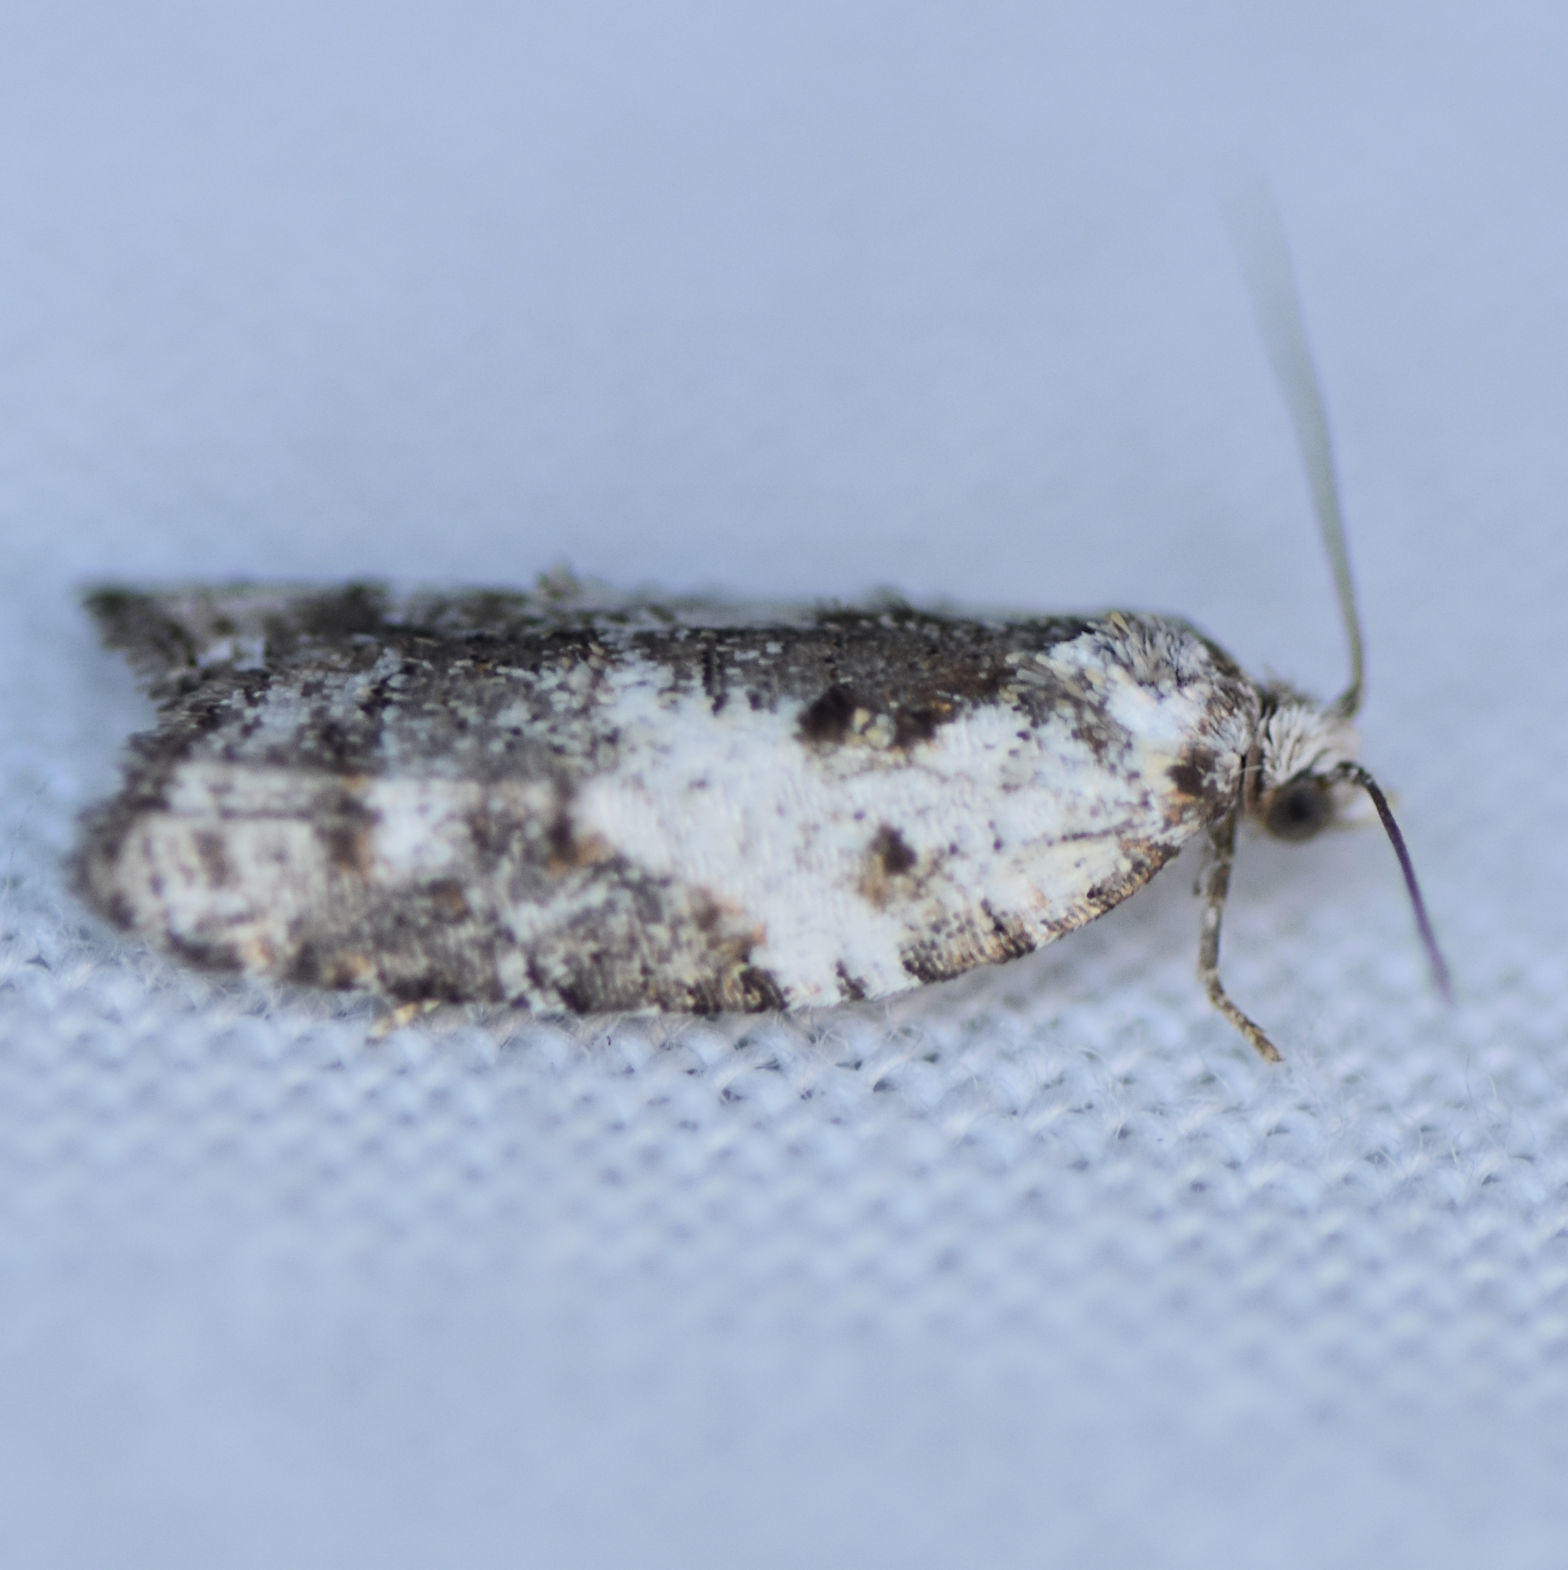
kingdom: Animalia
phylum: Arthropoda
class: Insecta
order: Lepidoptera
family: Tortricidae
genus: Acleris
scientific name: Acleris variana
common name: Eastern black-headed budworm moth
